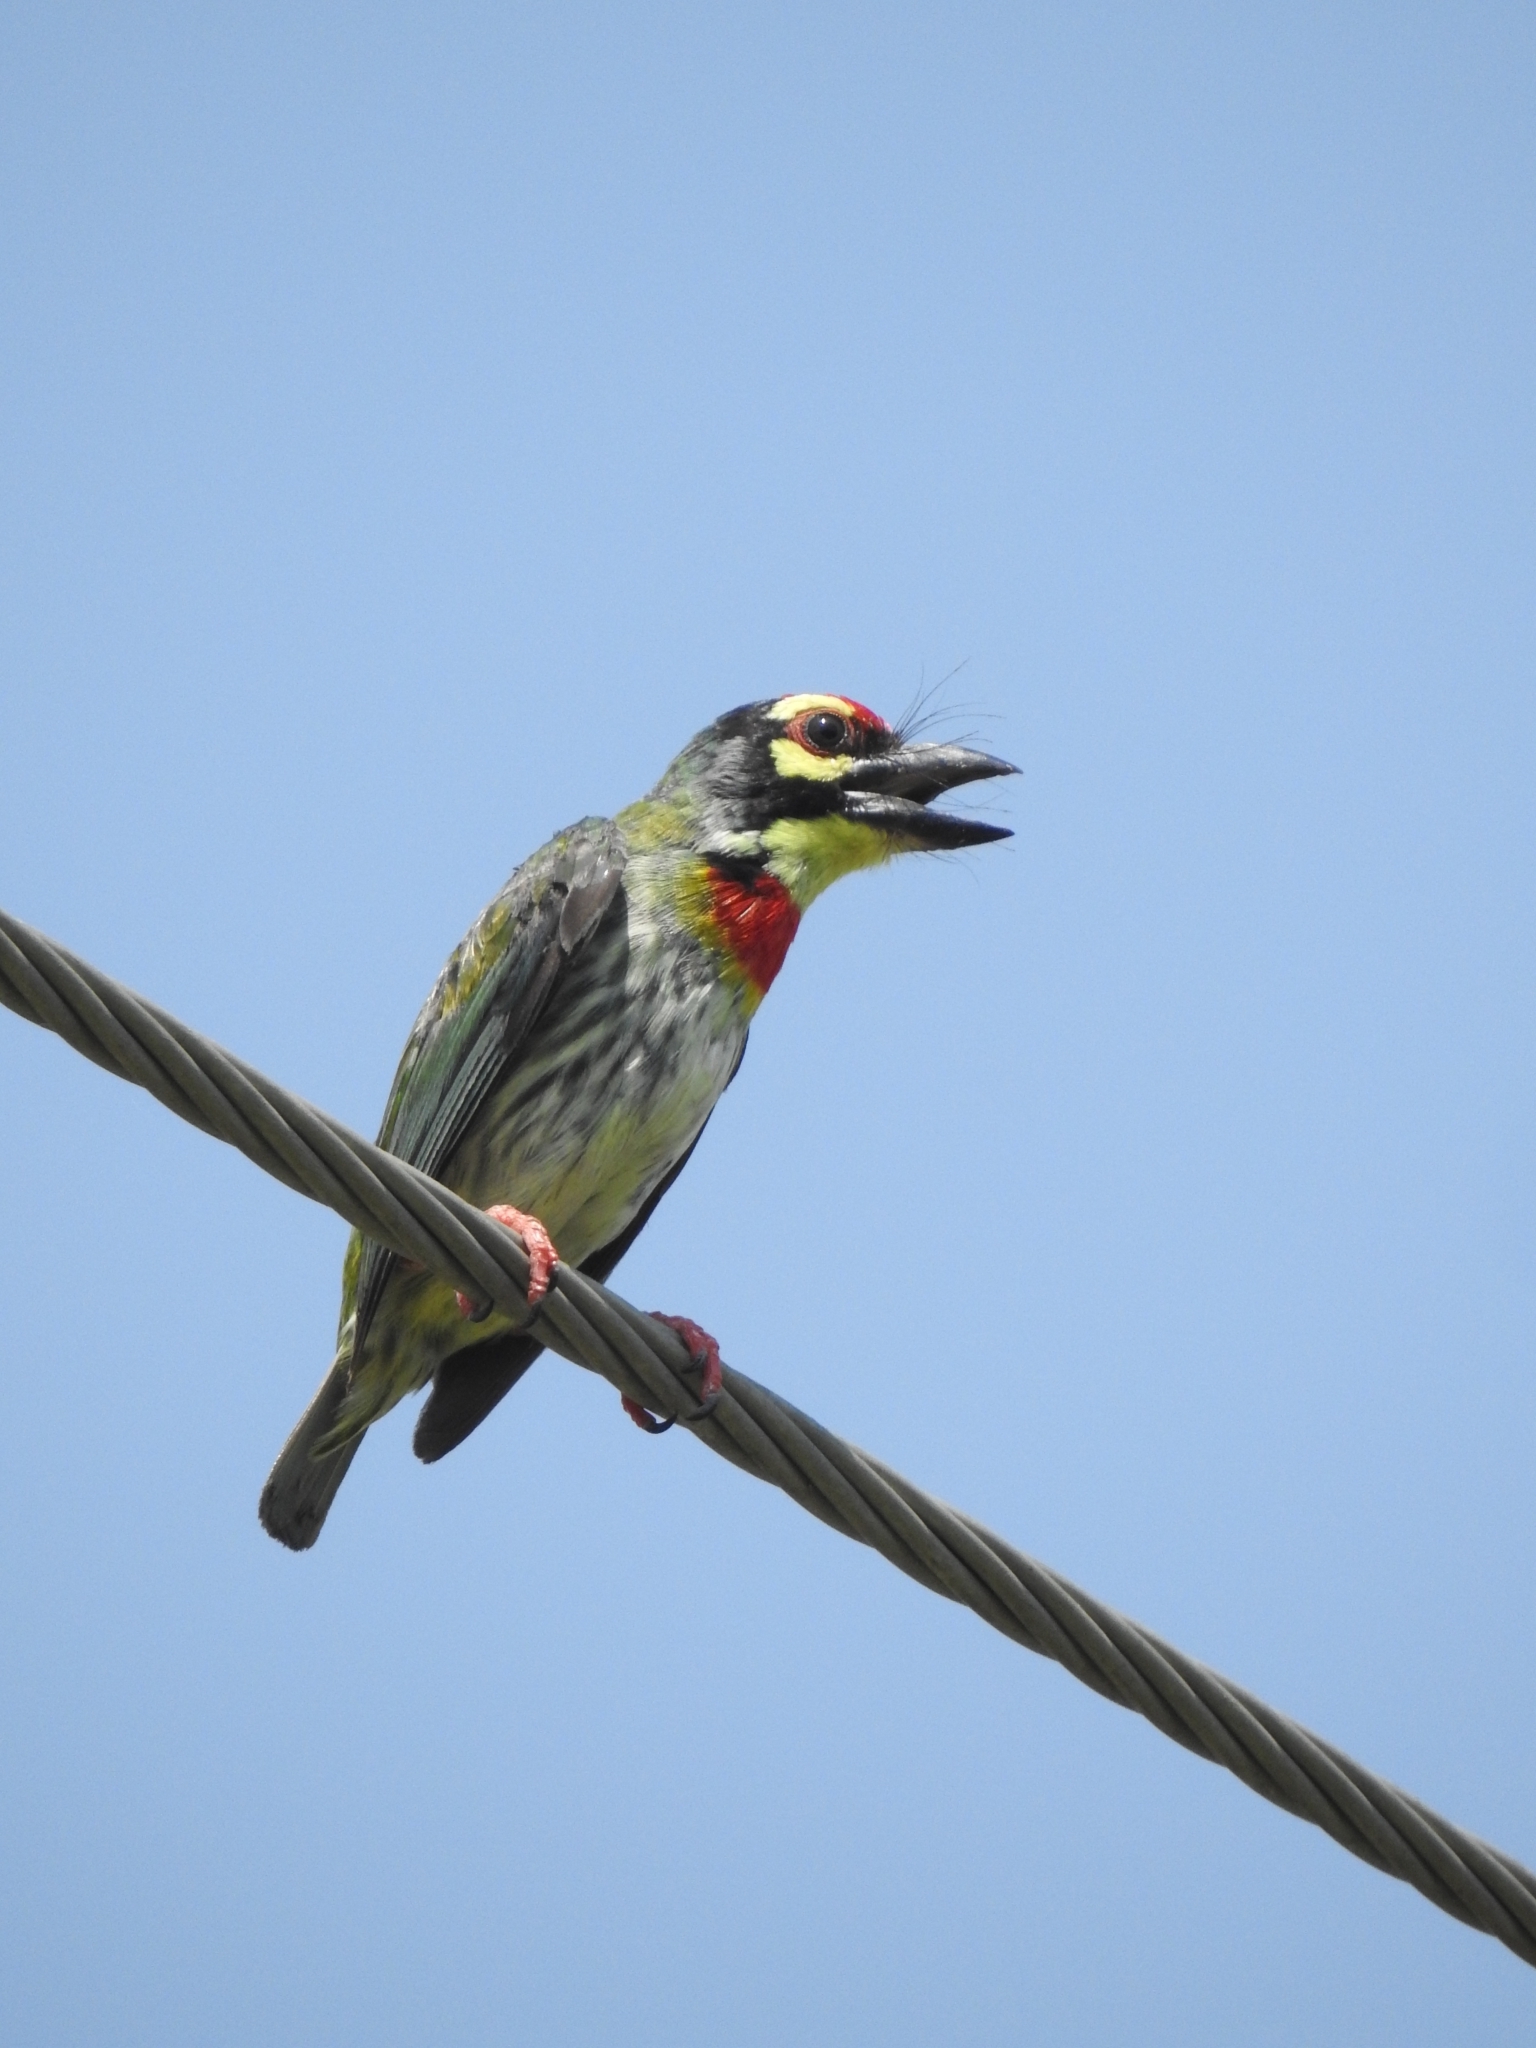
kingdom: Animalia
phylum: Chordata
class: Aves
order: Piciformes
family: Megalaimidae
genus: Psilopogon
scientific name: Psilopogon haemacephalus
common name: Coppersmith barbet
